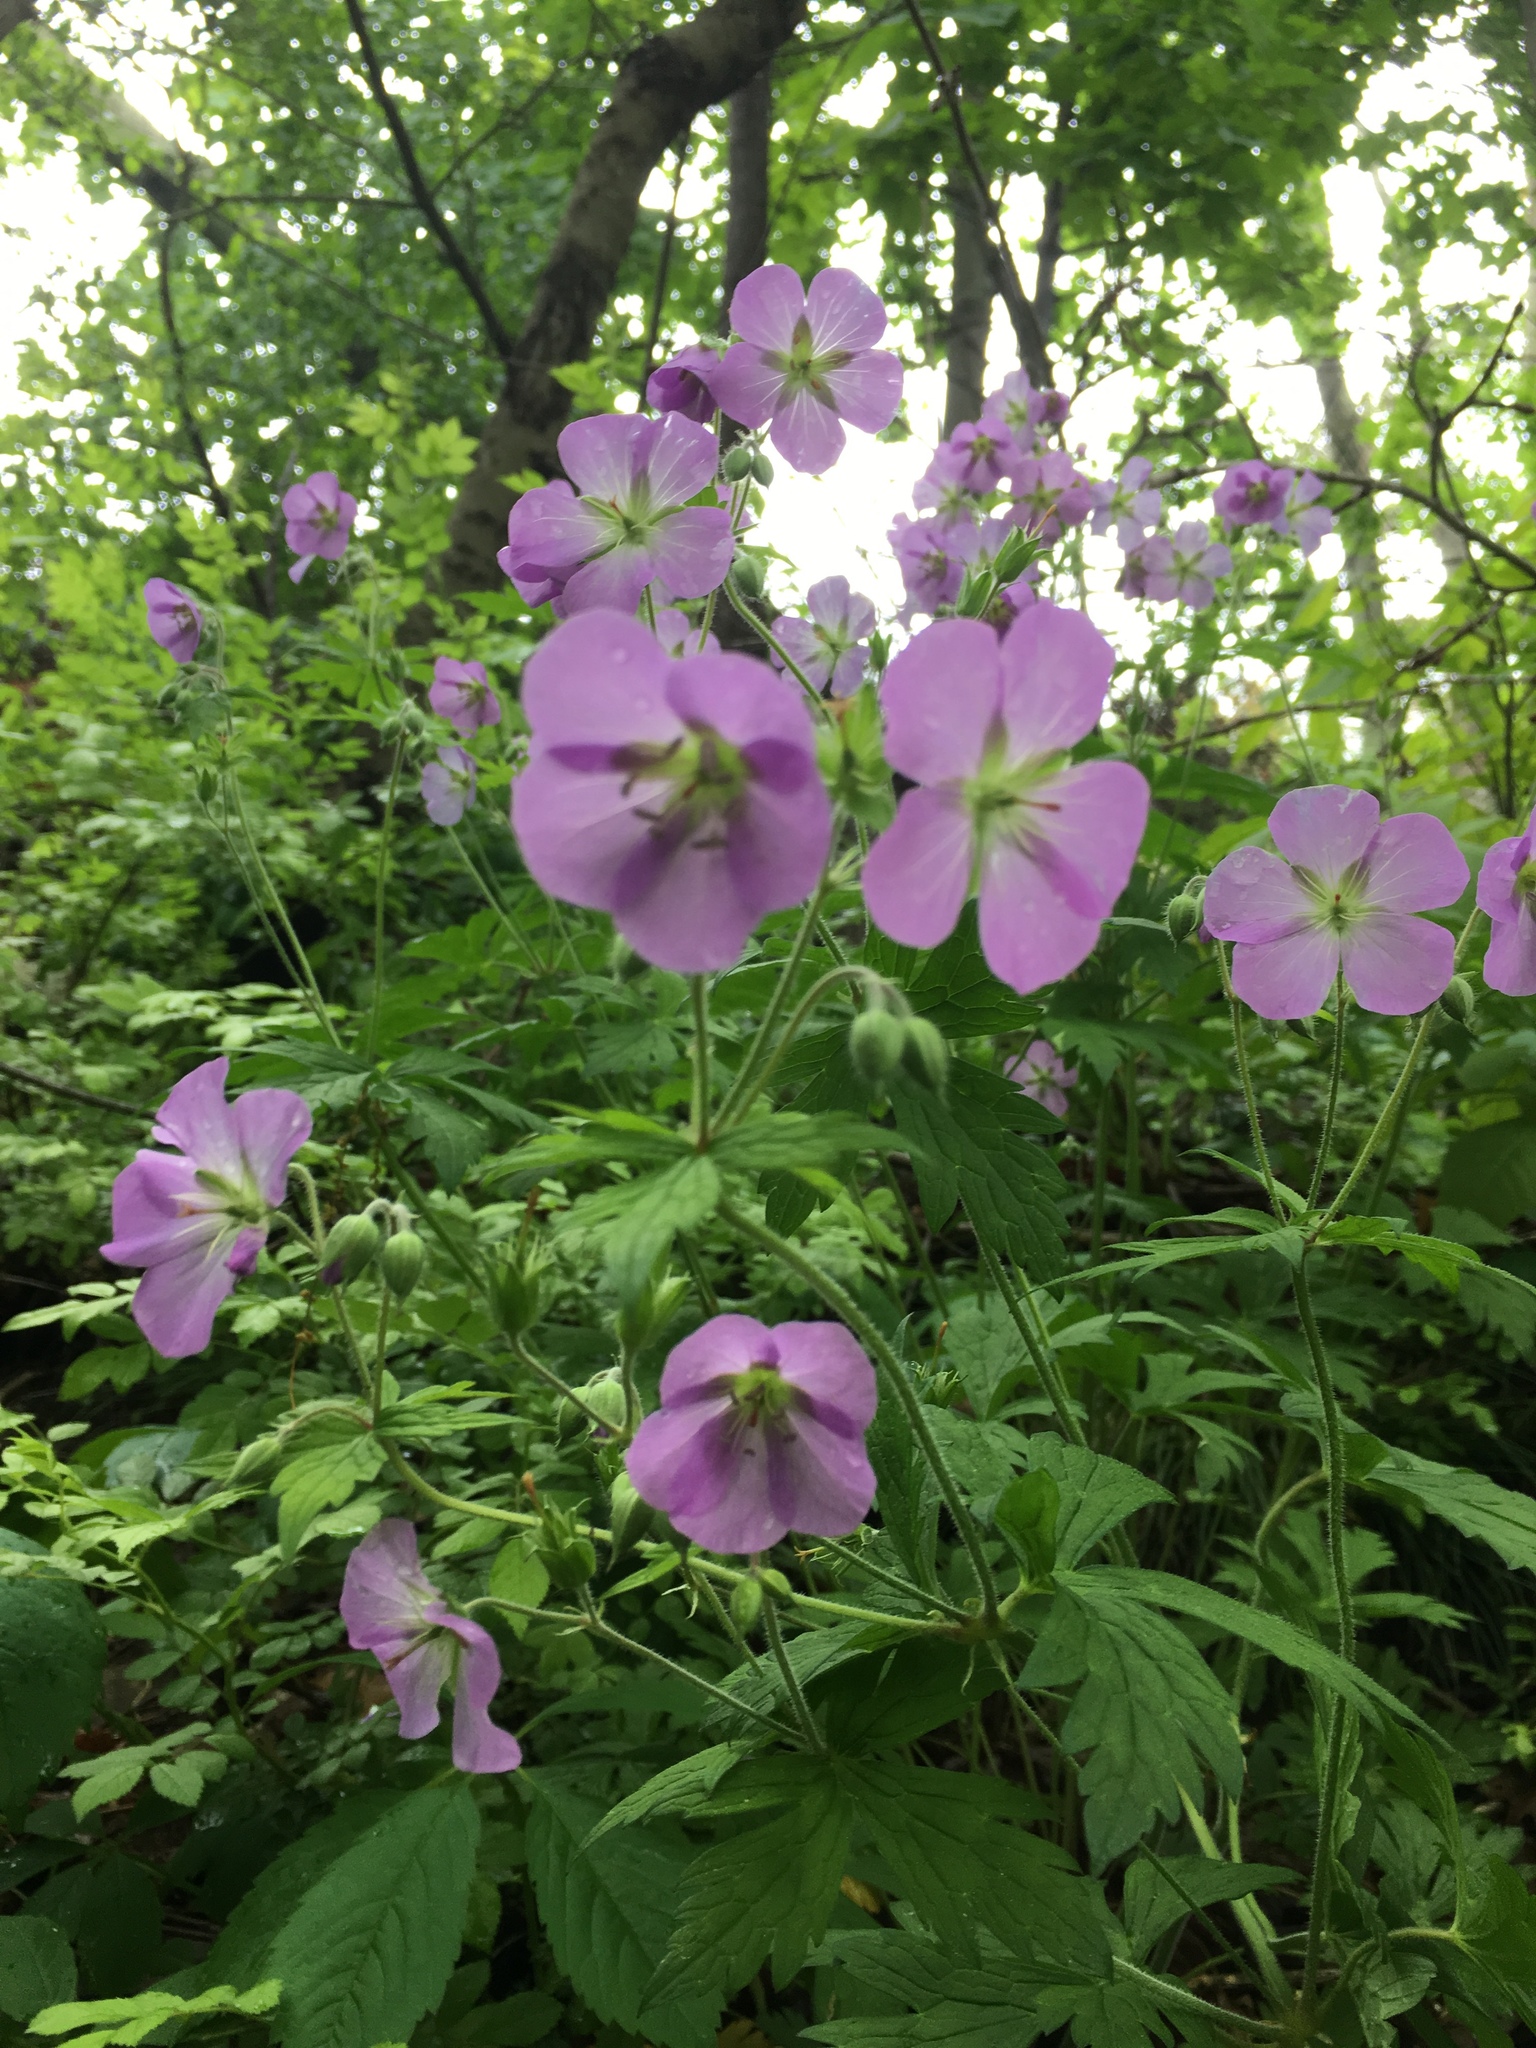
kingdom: Plantae
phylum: Tracheophyta
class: Magnoliopsida
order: Geraniales
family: Geraniaceae
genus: Geranium
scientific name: Geranium maculatum
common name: Spotted geranium
